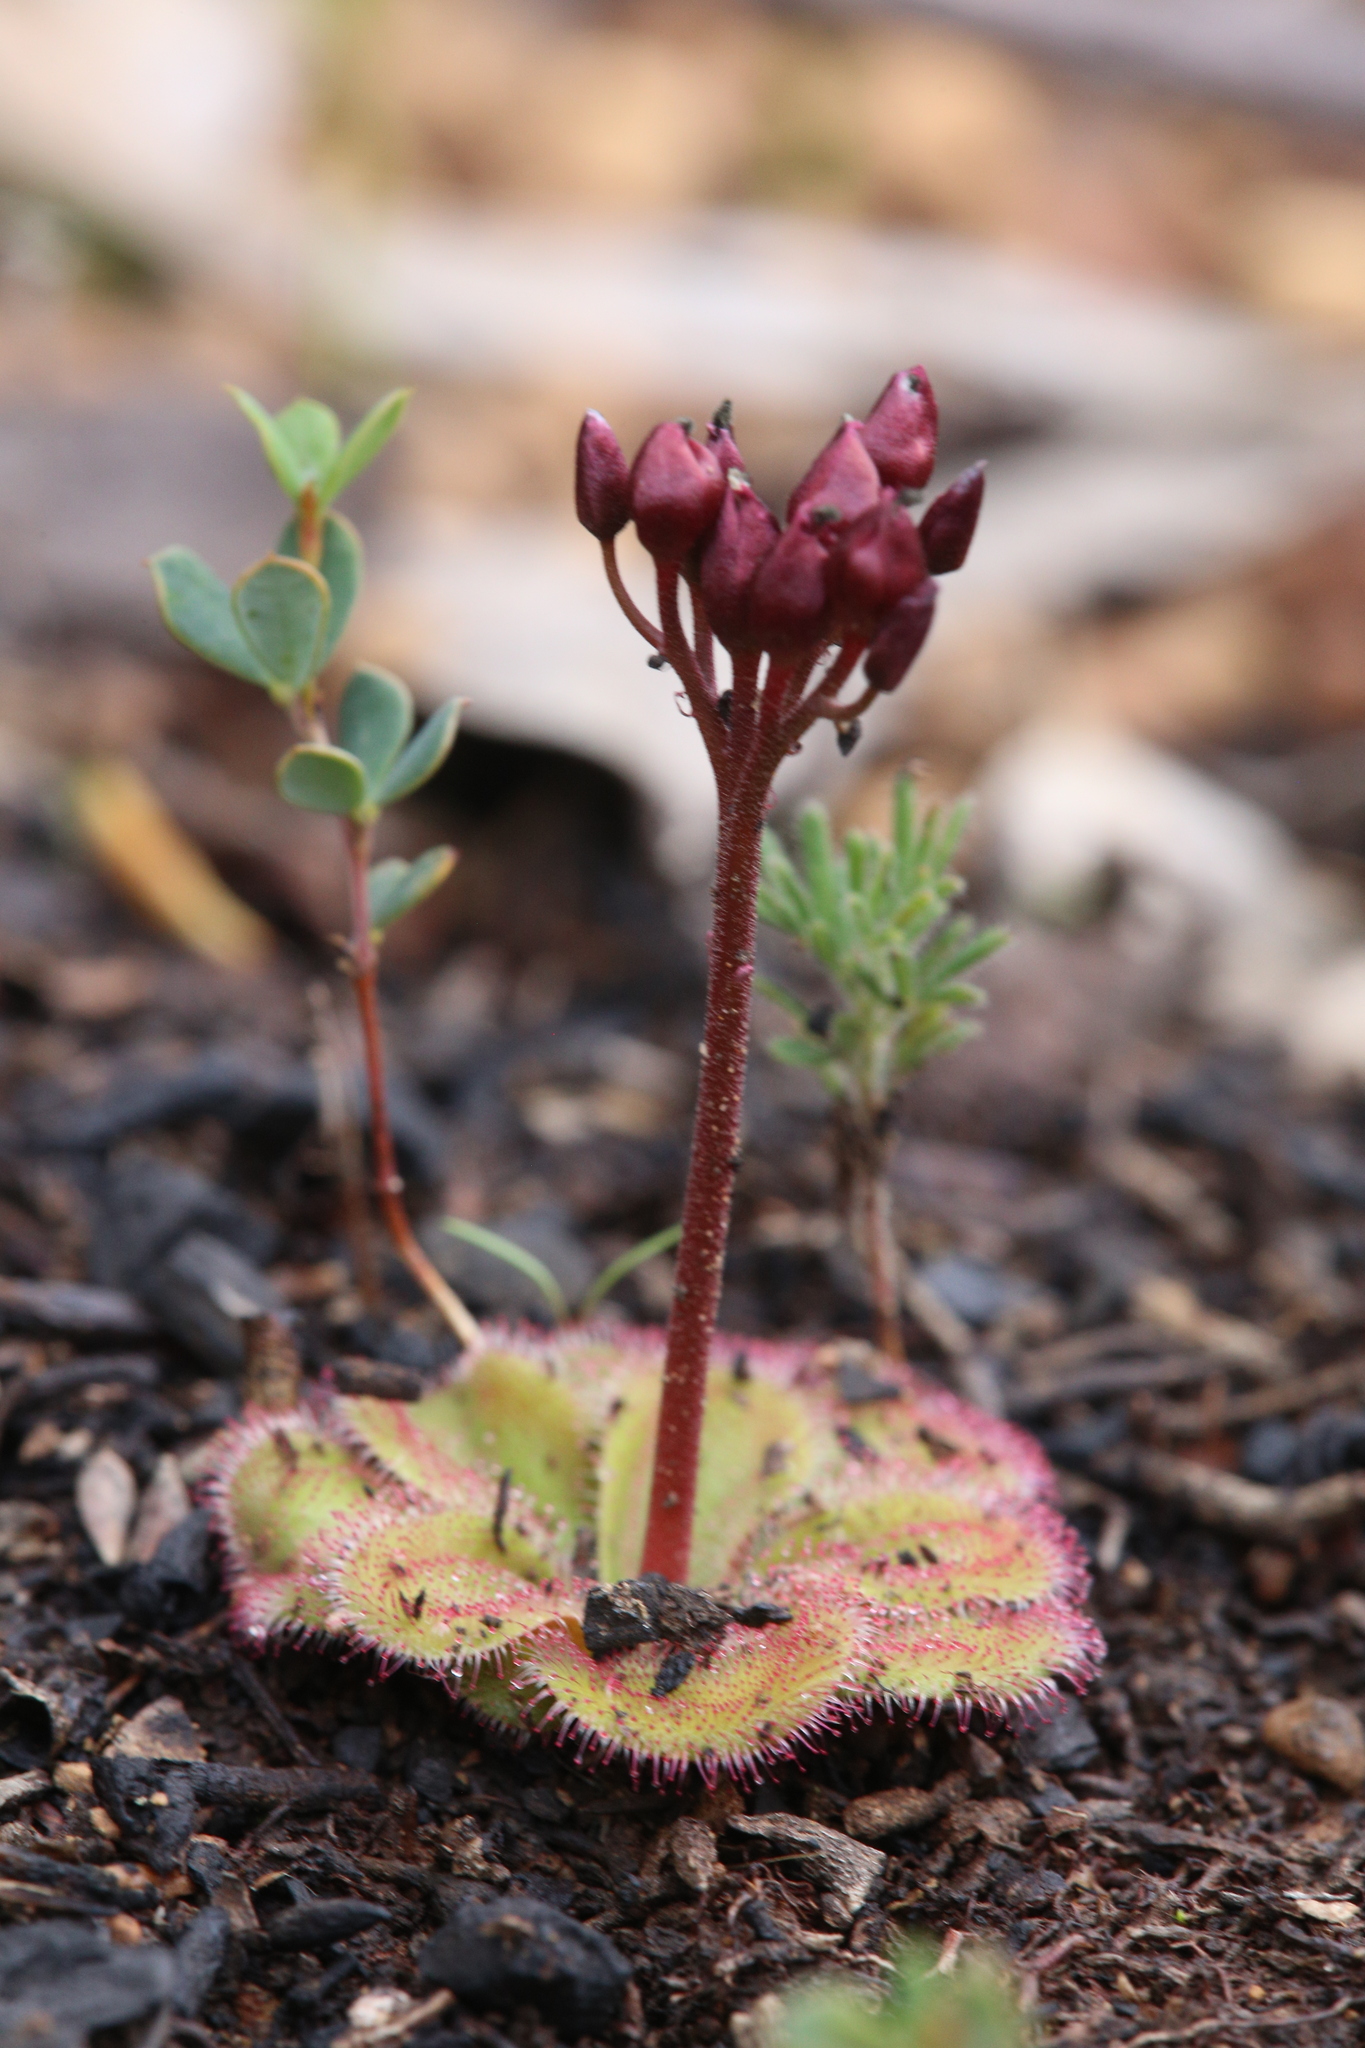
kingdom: Plantae
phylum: Tracheophyta
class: Magnoliopsida
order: Caryophyllales
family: Droseraceae
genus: Drosera
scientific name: Drosera erythrorhiza
